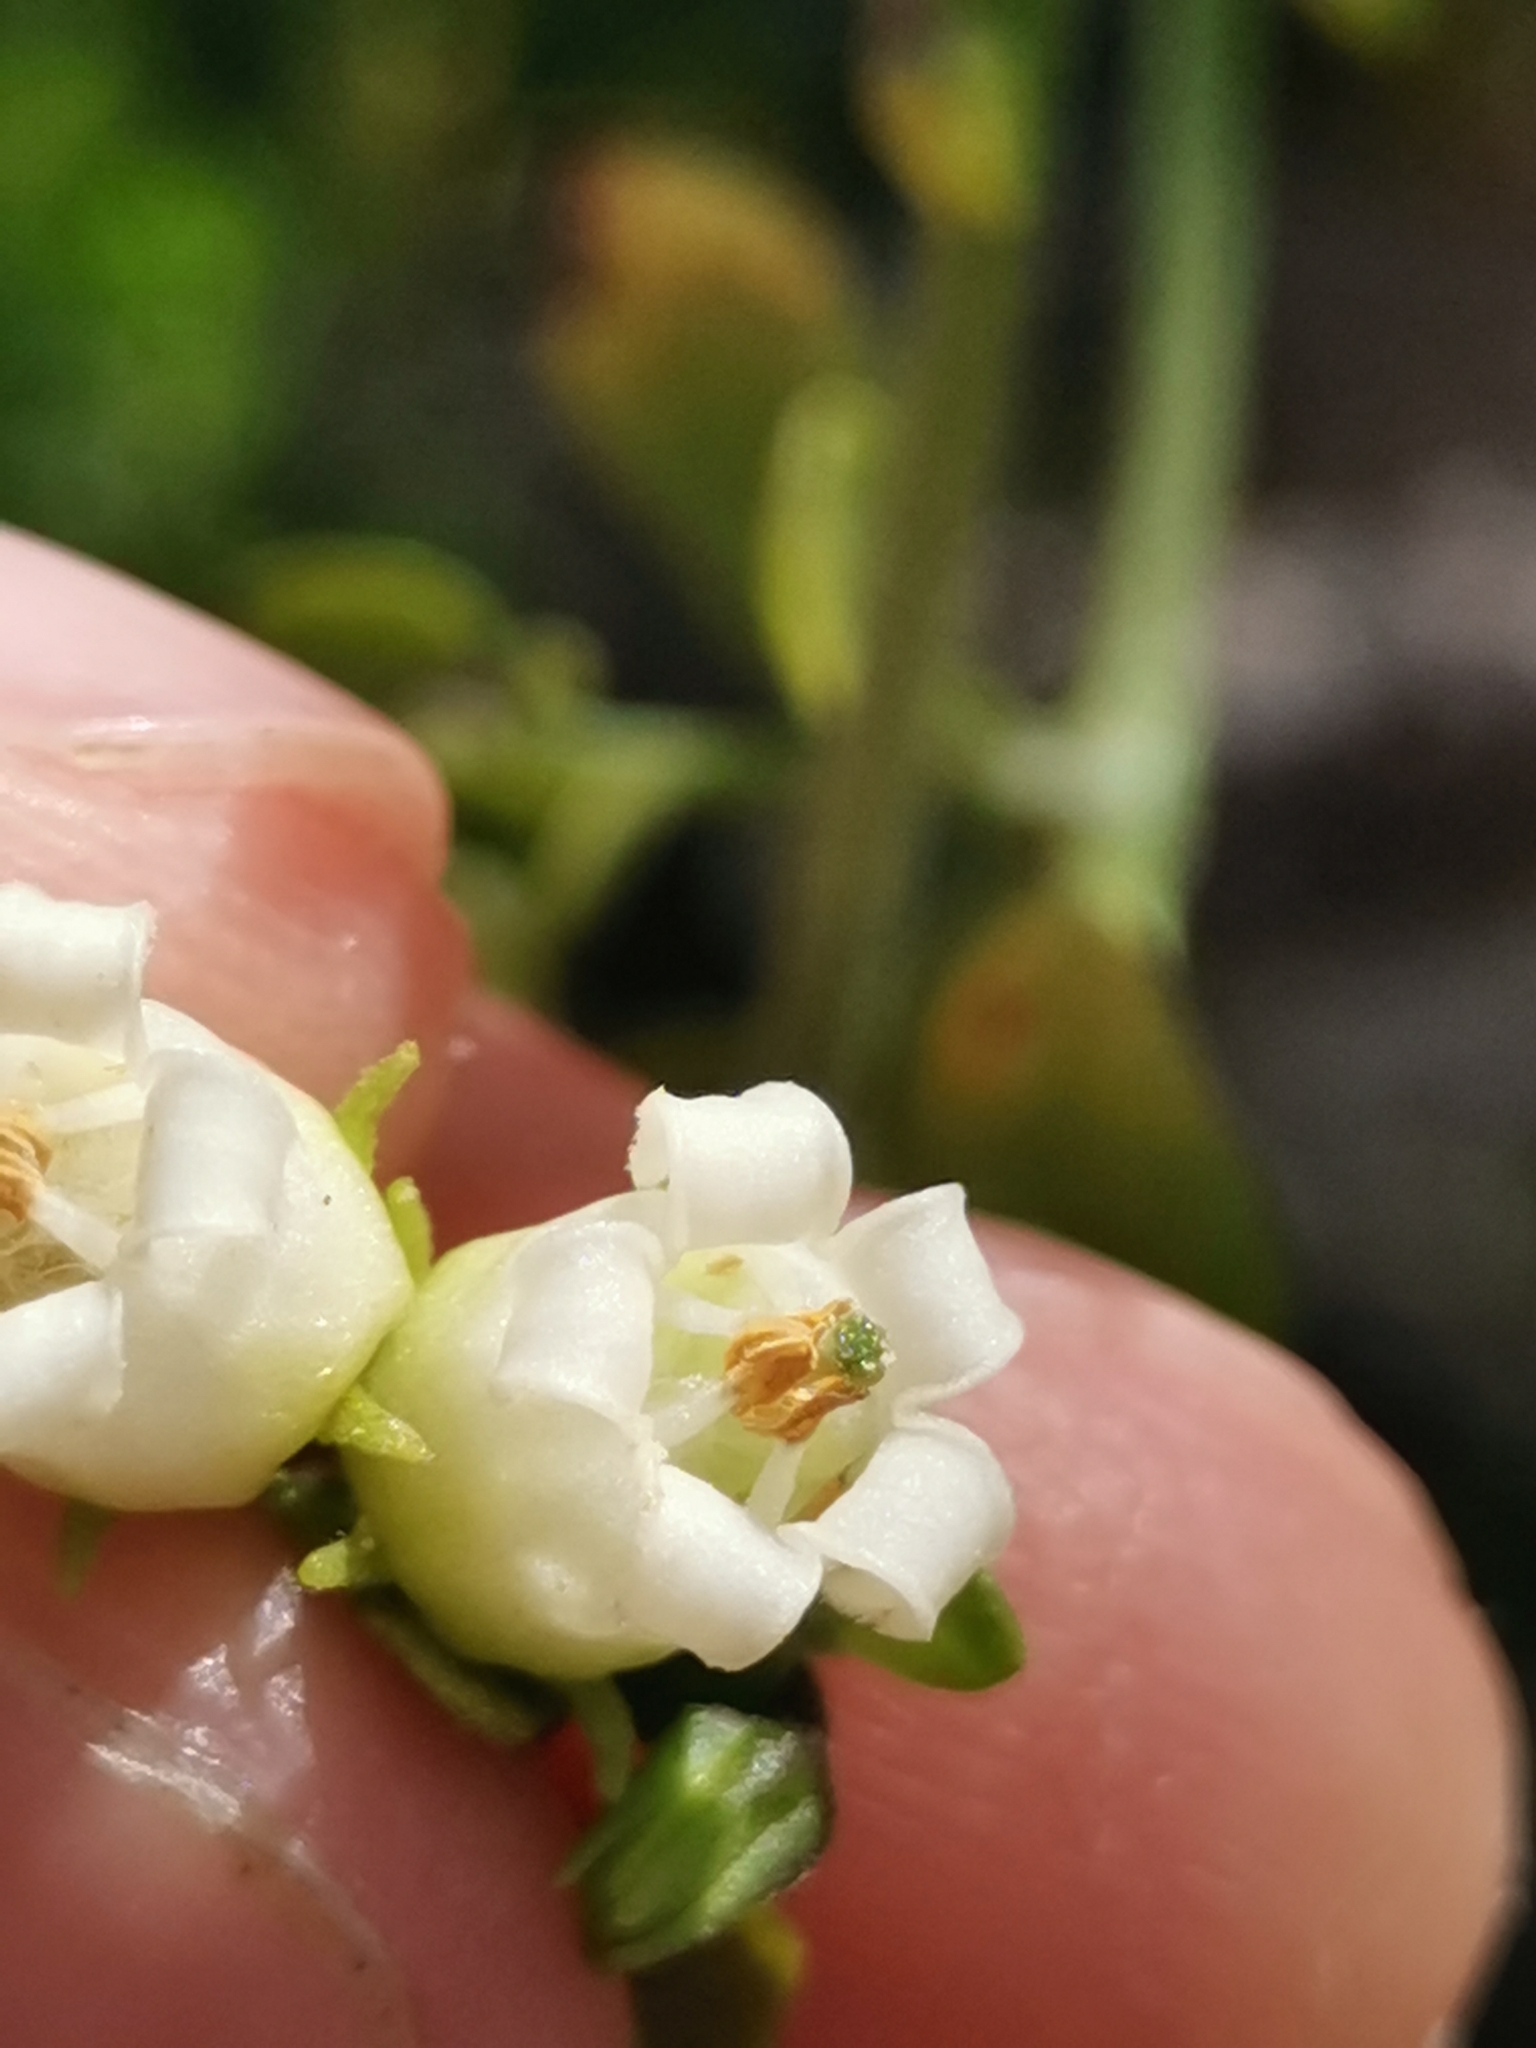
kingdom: Plantae
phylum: Tracheophyta
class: Magnoliopsida
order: Solanales
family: Solanaceae
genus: Salpichroa
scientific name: Salpichroa origanifolia
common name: Lily-of-the-valley-vine
